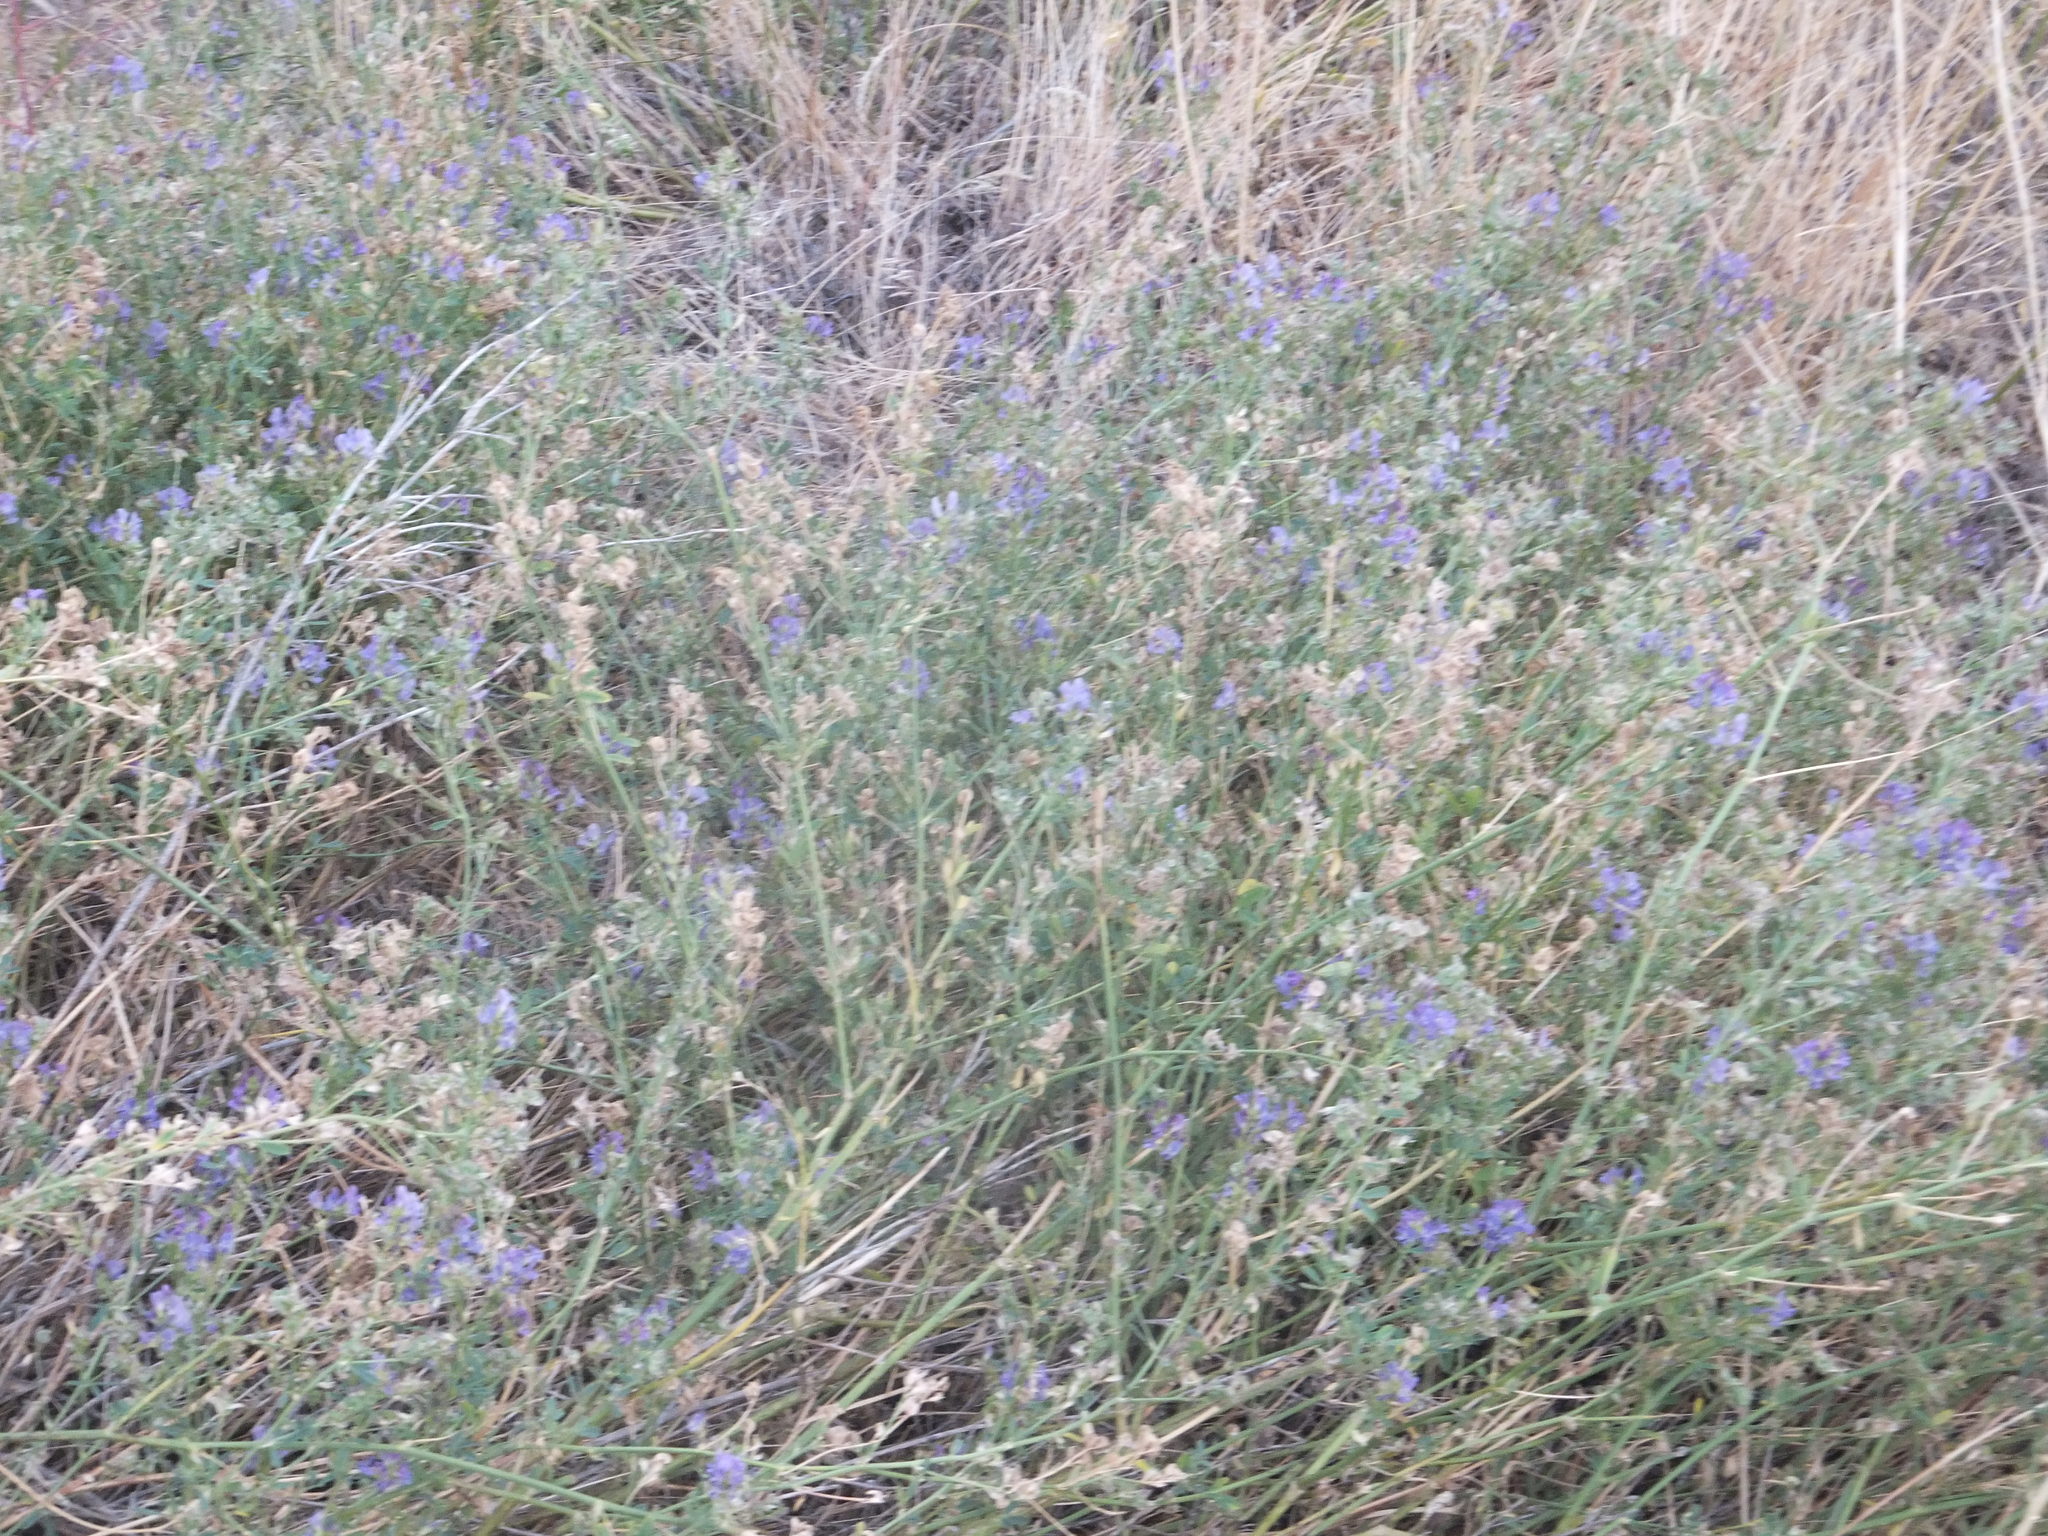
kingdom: Plantae
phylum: Tracheophyta
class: Magnoliopsida
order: Fabales
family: Fabaceae
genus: Medicago
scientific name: Medicago sativa
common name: Alfalfa
